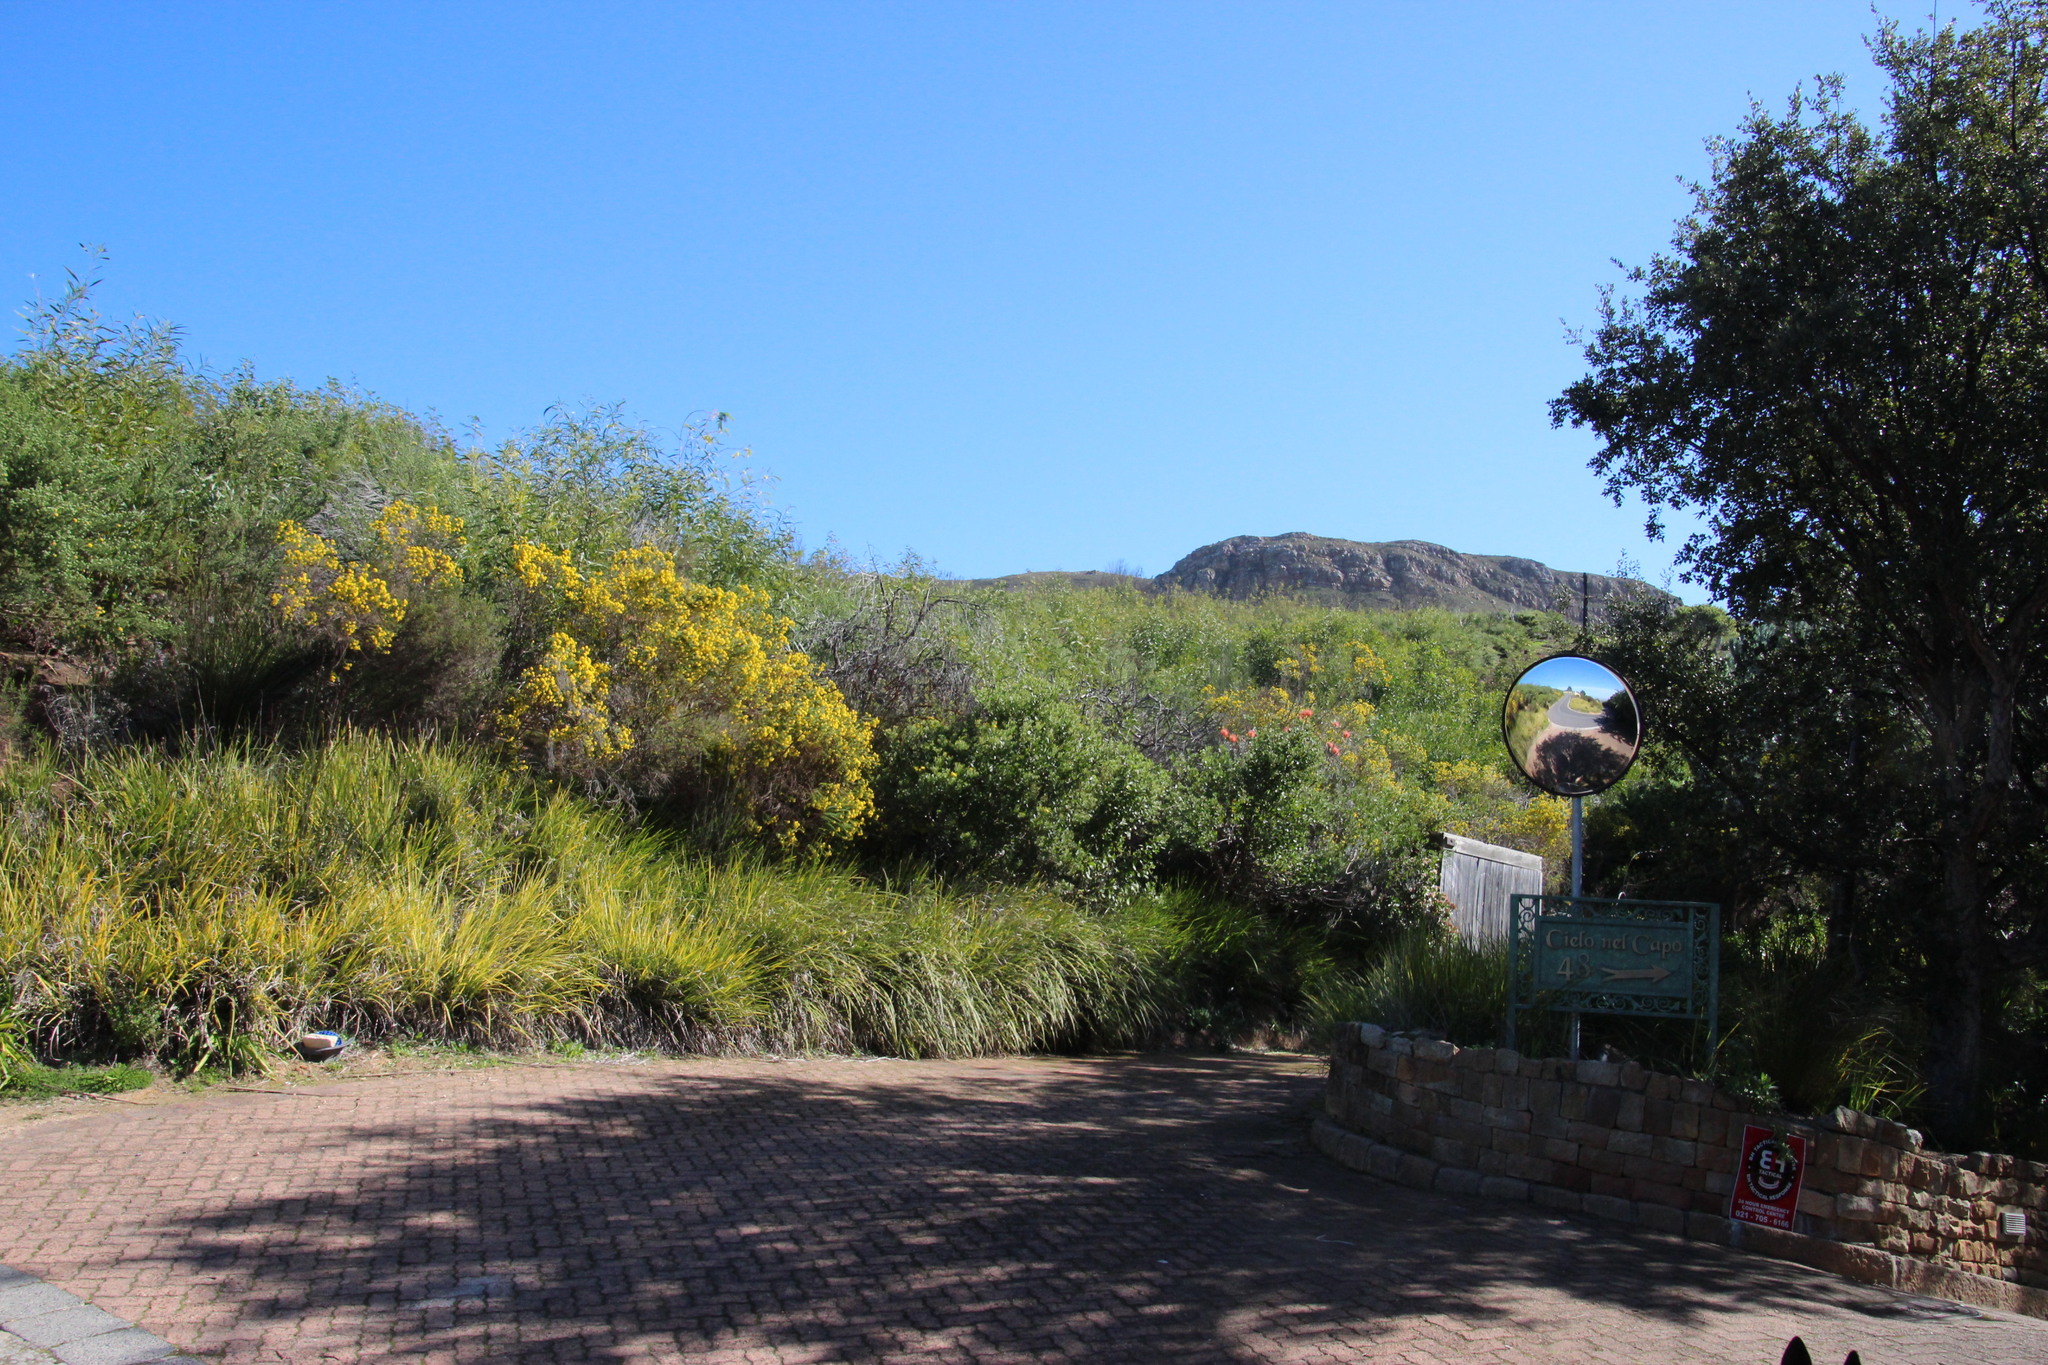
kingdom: Plantae
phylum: Tracheophyta
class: Magnoliopsida
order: Asterales
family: Asteraceae
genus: Euryops
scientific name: Euryops virgineus
